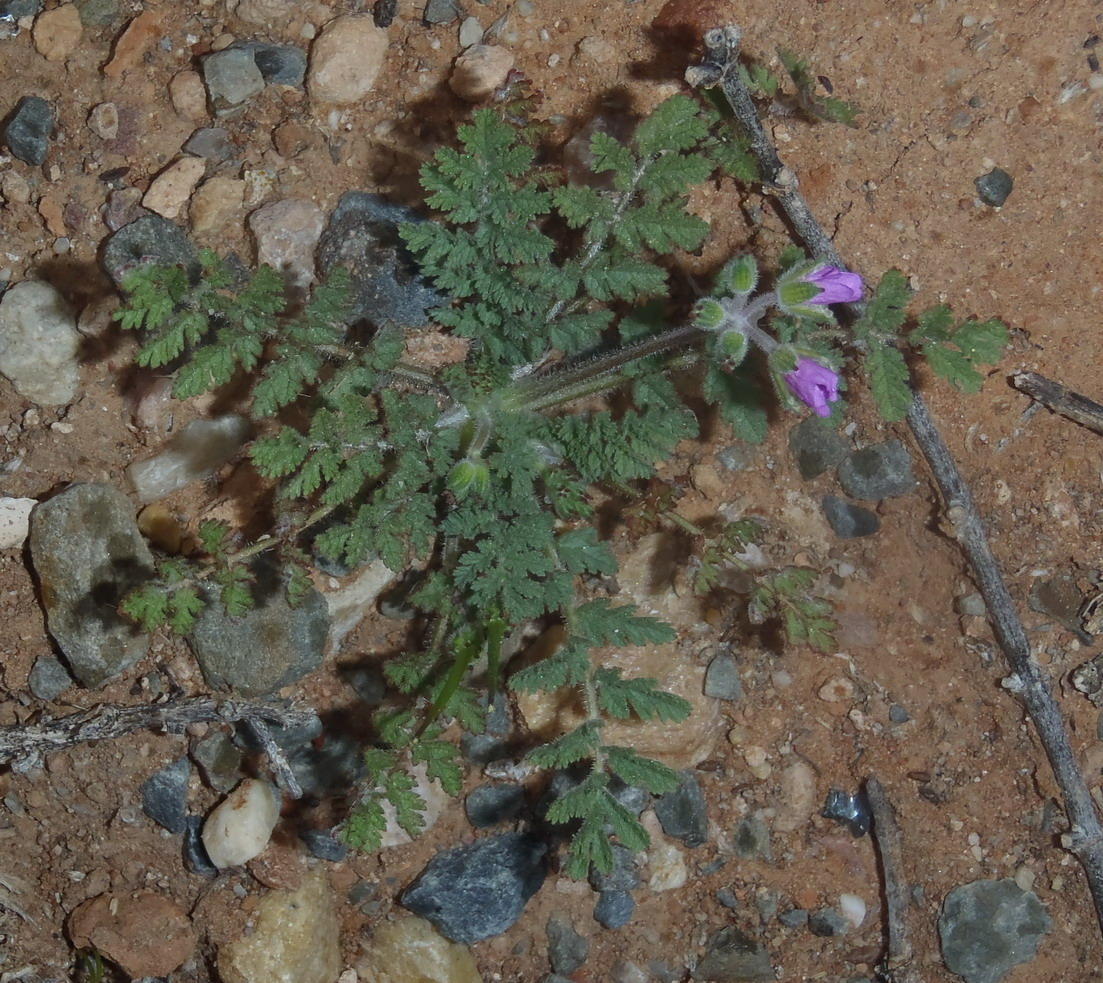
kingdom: Plantae
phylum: Tracheophyta
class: Magnoliopsida
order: Geraniales
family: Geraniaceae
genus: Erodium
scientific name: Erodium moschatum
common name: Musk stork's-bill
